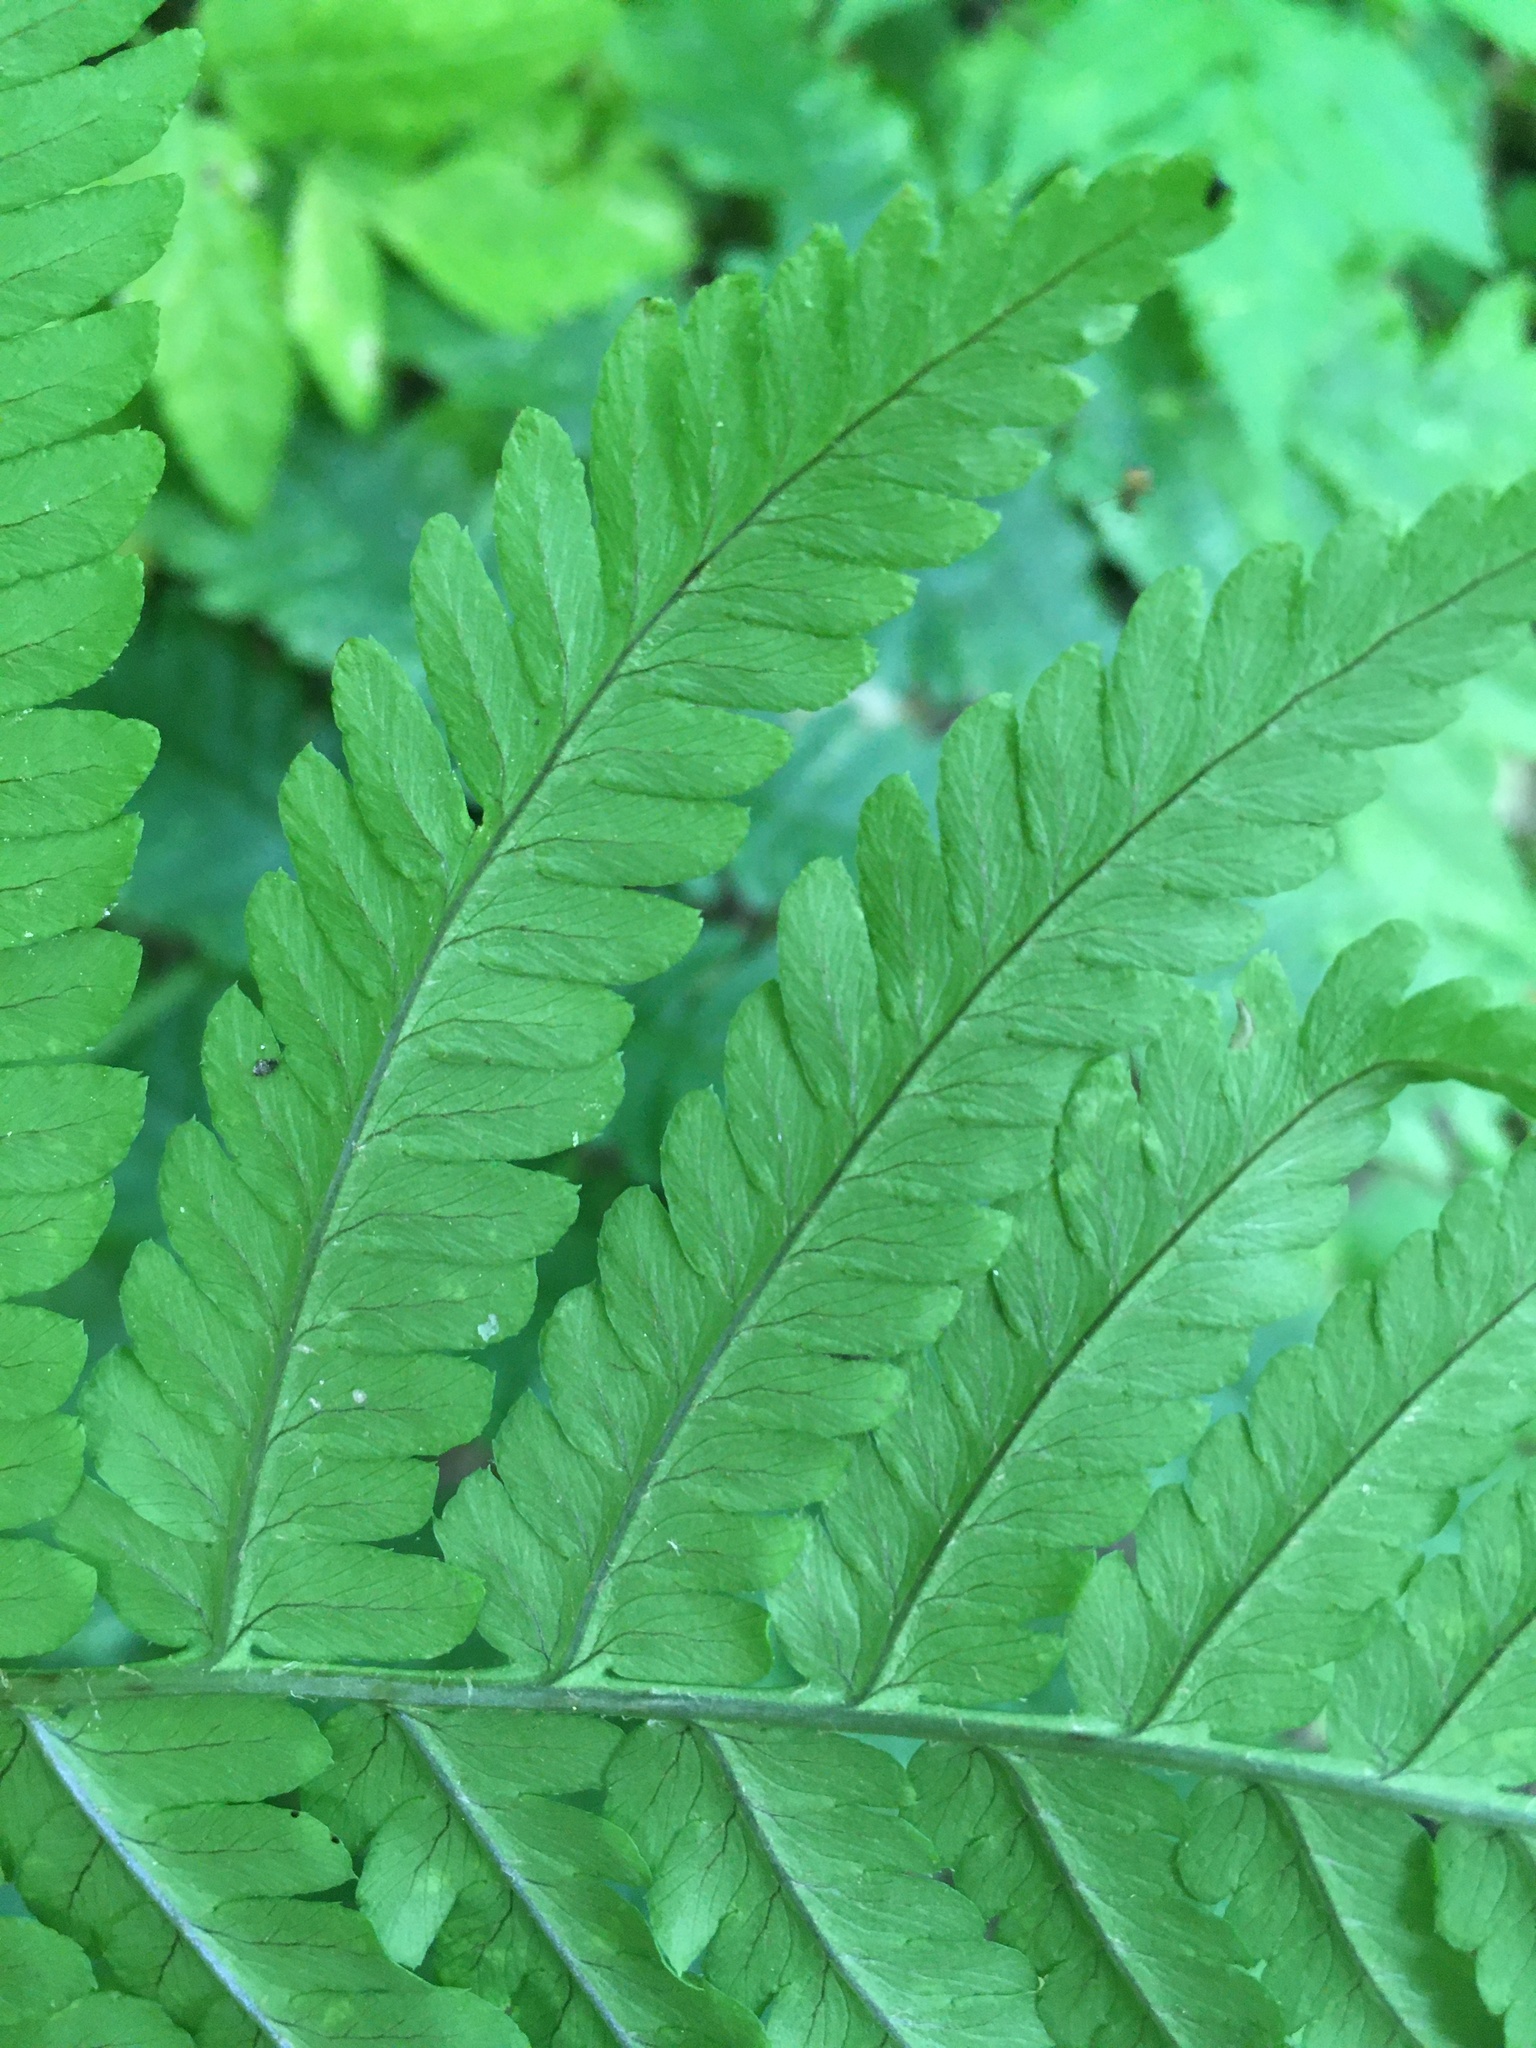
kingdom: Plantae
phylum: Tracheophyta
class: Polypodiopsida
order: Polypodiales
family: Dryopteridaceae
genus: Dryopteris
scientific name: Dryopteris goldieana
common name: Goldie's fern
